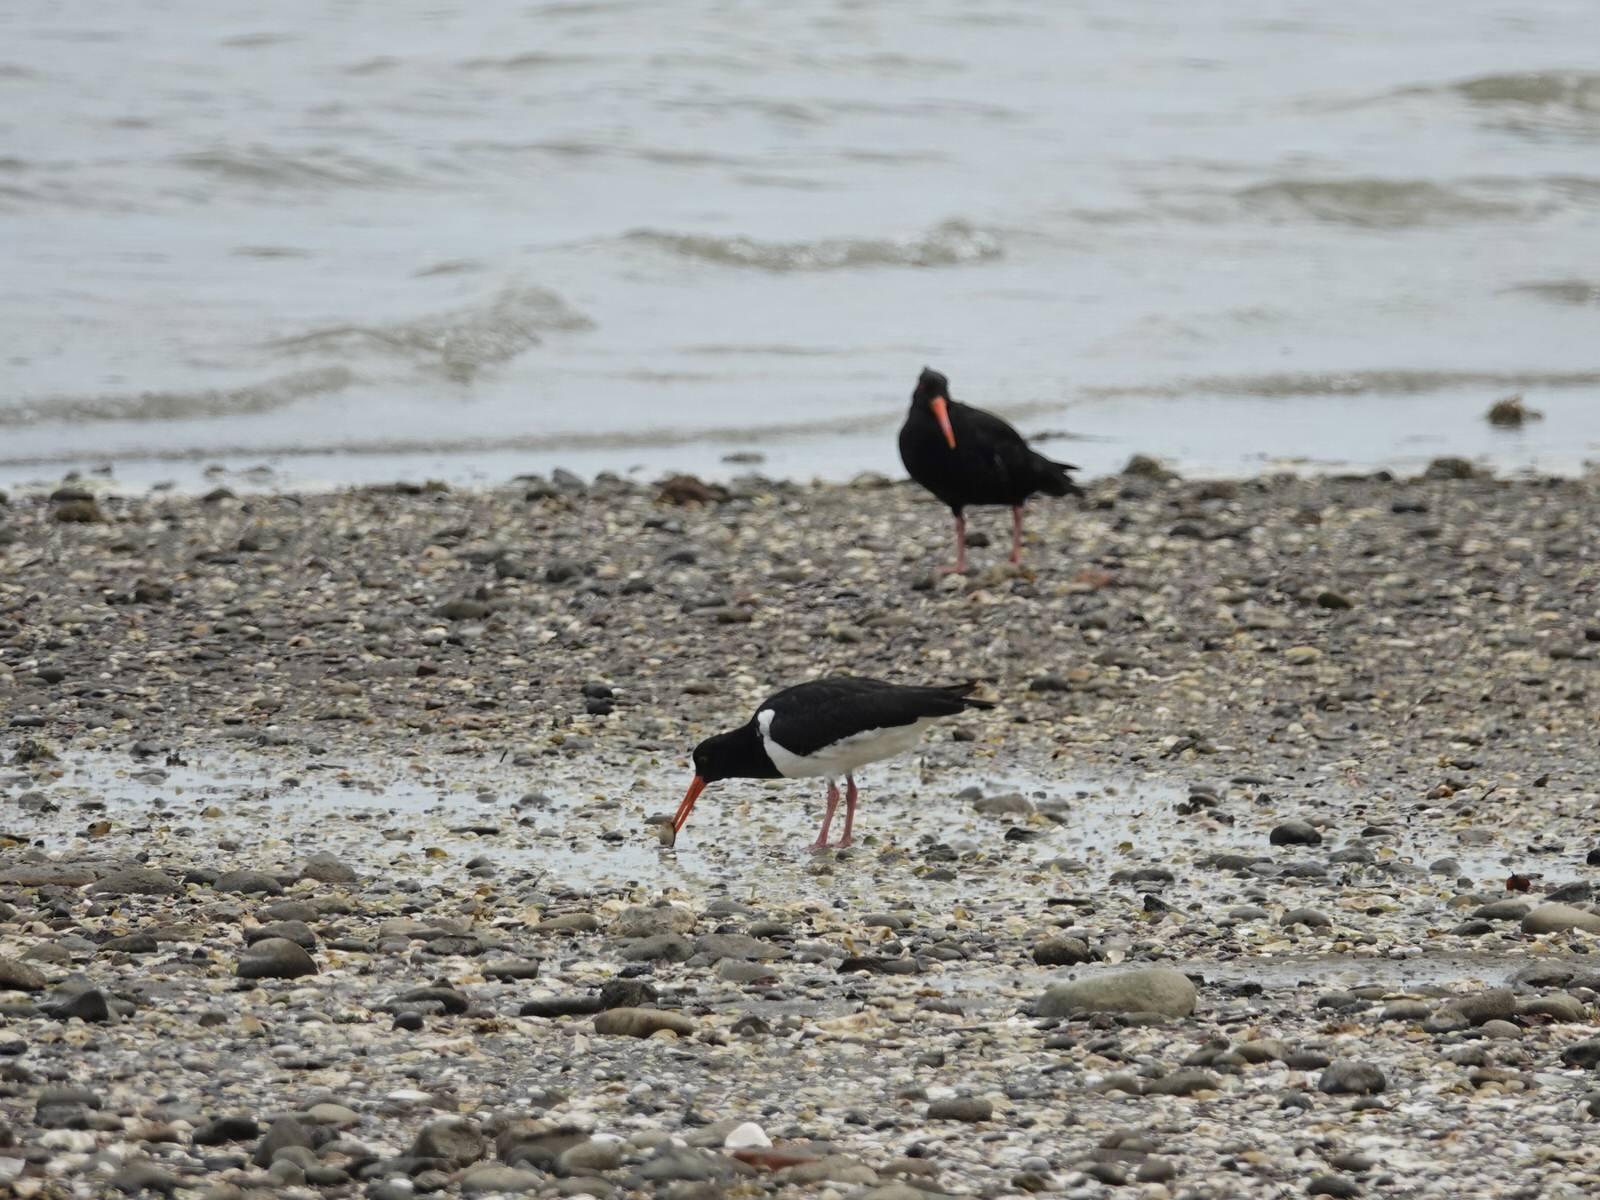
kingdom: Animalia
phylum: Chordata
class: Aves
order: Charadriiformes
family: Haematopodidae
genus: Haematopus
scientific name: Haematopus unicolor
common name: Variable oystercatcher
